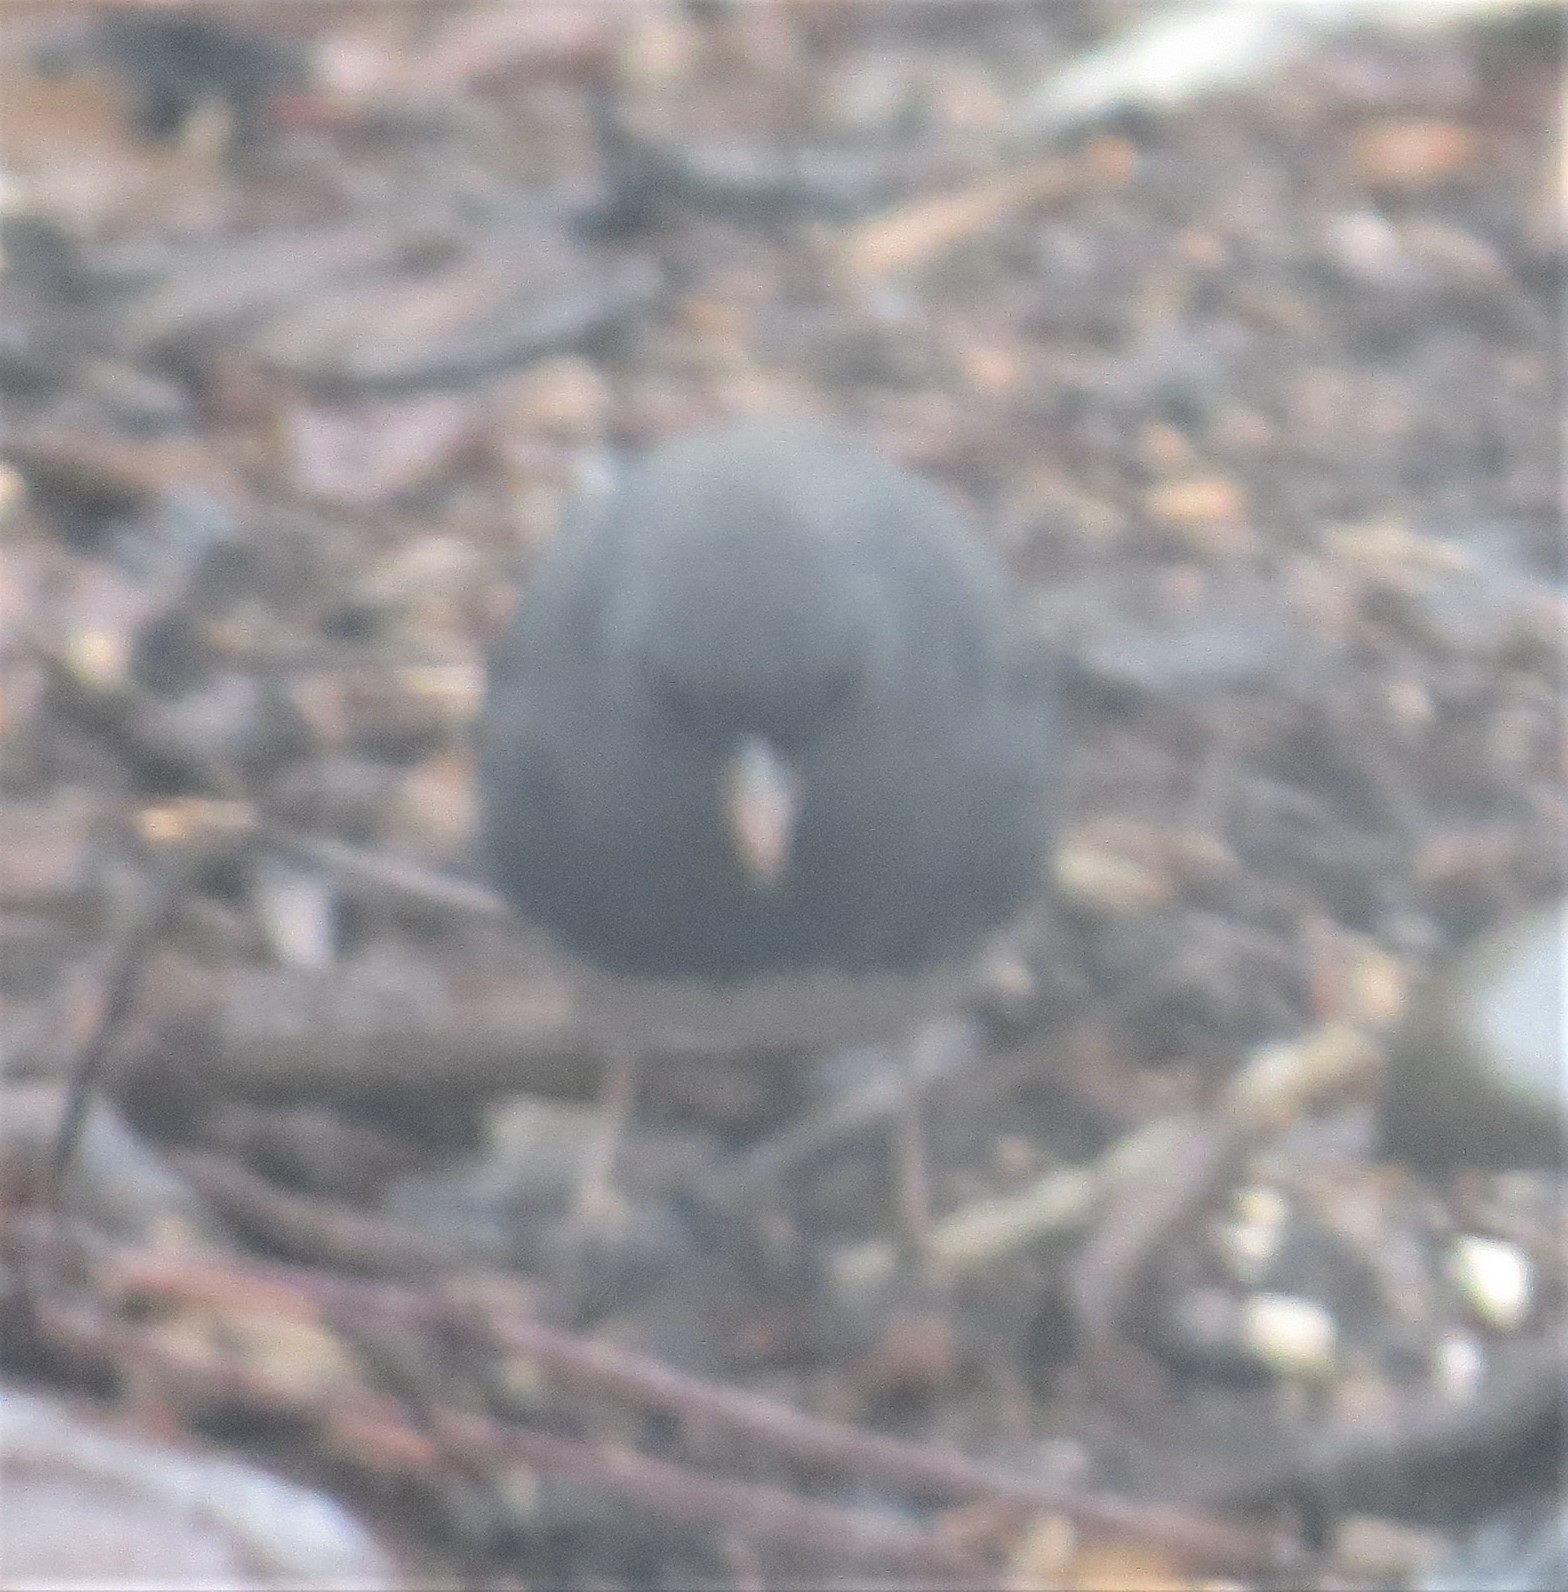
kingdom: Animalia
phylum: Chordata
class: Aves
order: Passeriformes
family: Passerellidae
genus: Junco
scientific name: Junco hyemalis
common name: Dark-eyed junco
